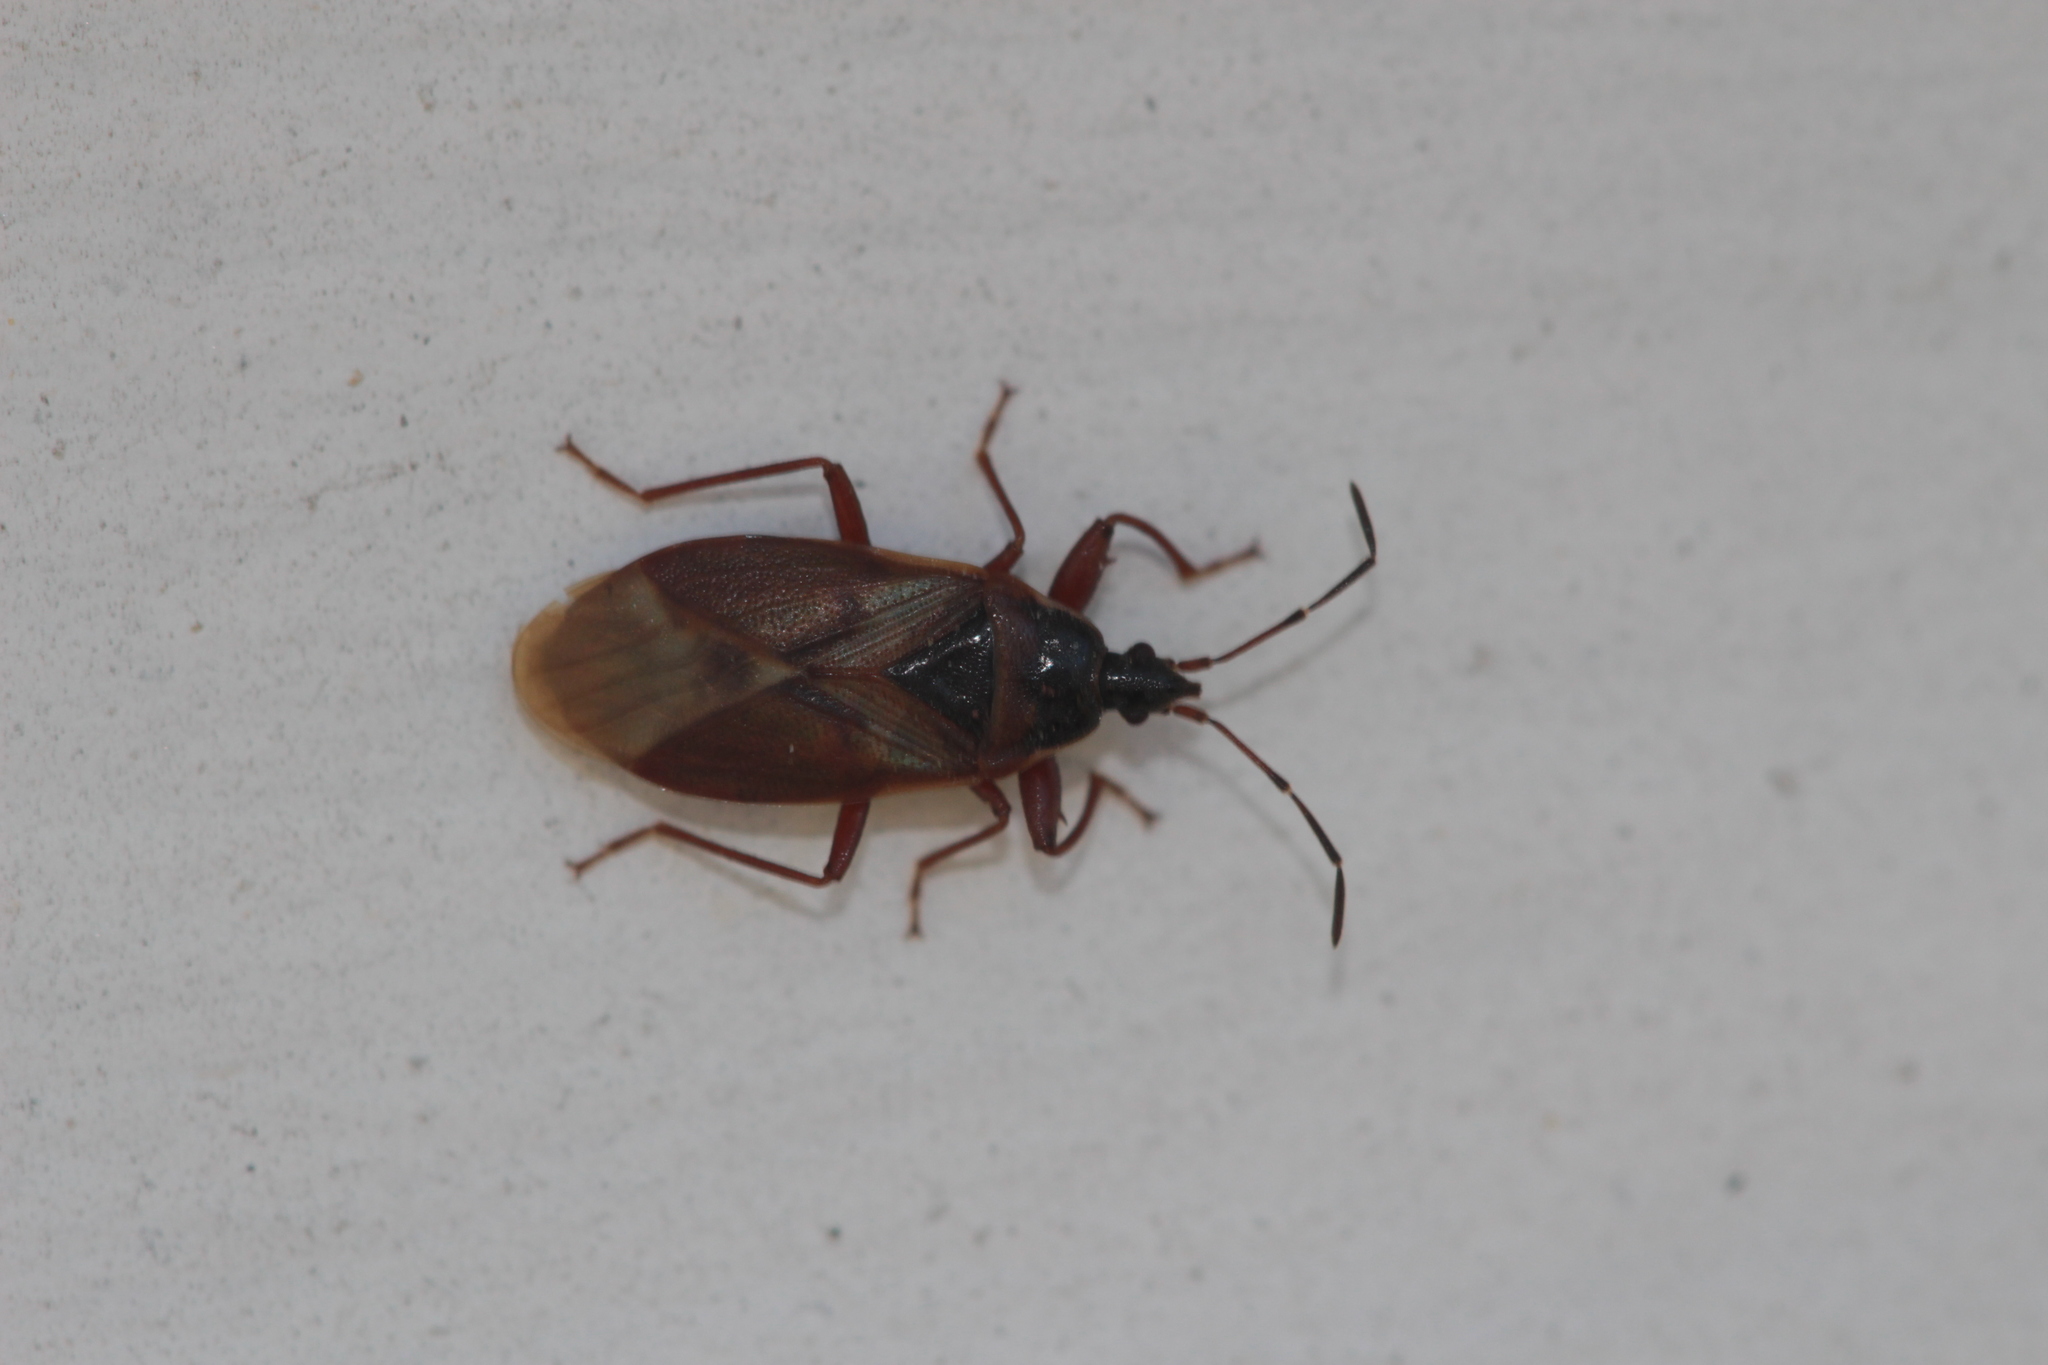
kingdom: Animalia
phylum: Arthropoda
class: Insecta
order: Hemiptera
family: Rhyparochromidae
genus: Gastrodes
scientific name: Gastrodes abietum
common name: Spruce cone bug
